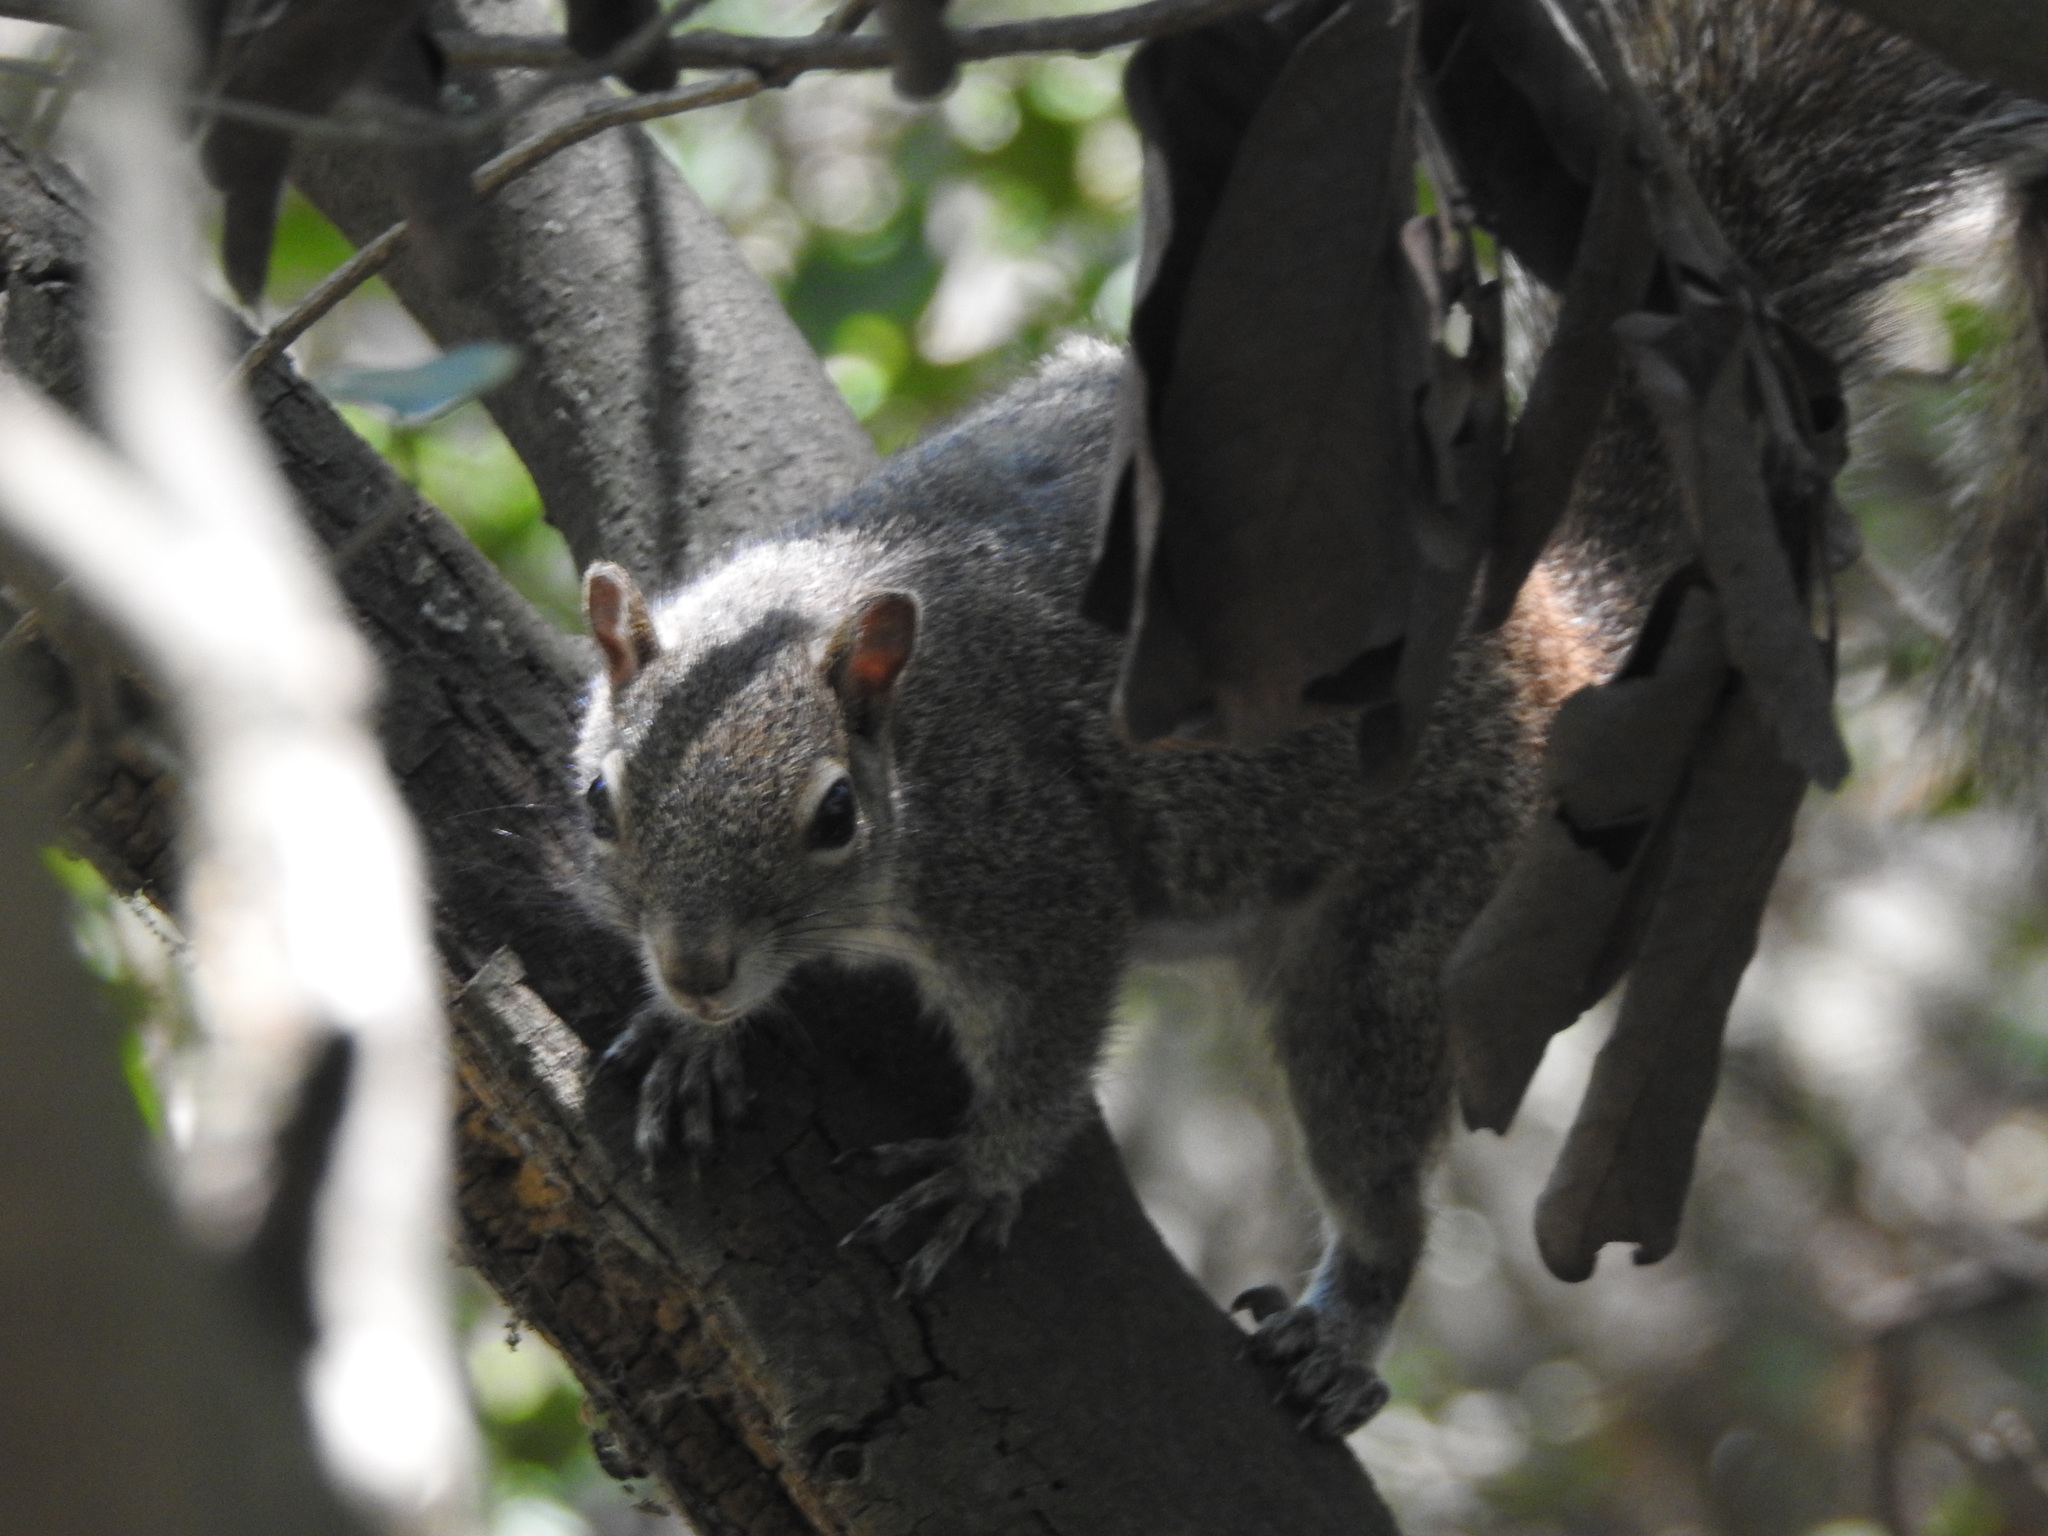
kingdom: Animalia
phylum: Chordata
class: Mammalia
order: Rodentia
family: Sciuridae
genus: Sciurus
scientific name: Sciurus alleni
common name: Allen's squirrel
